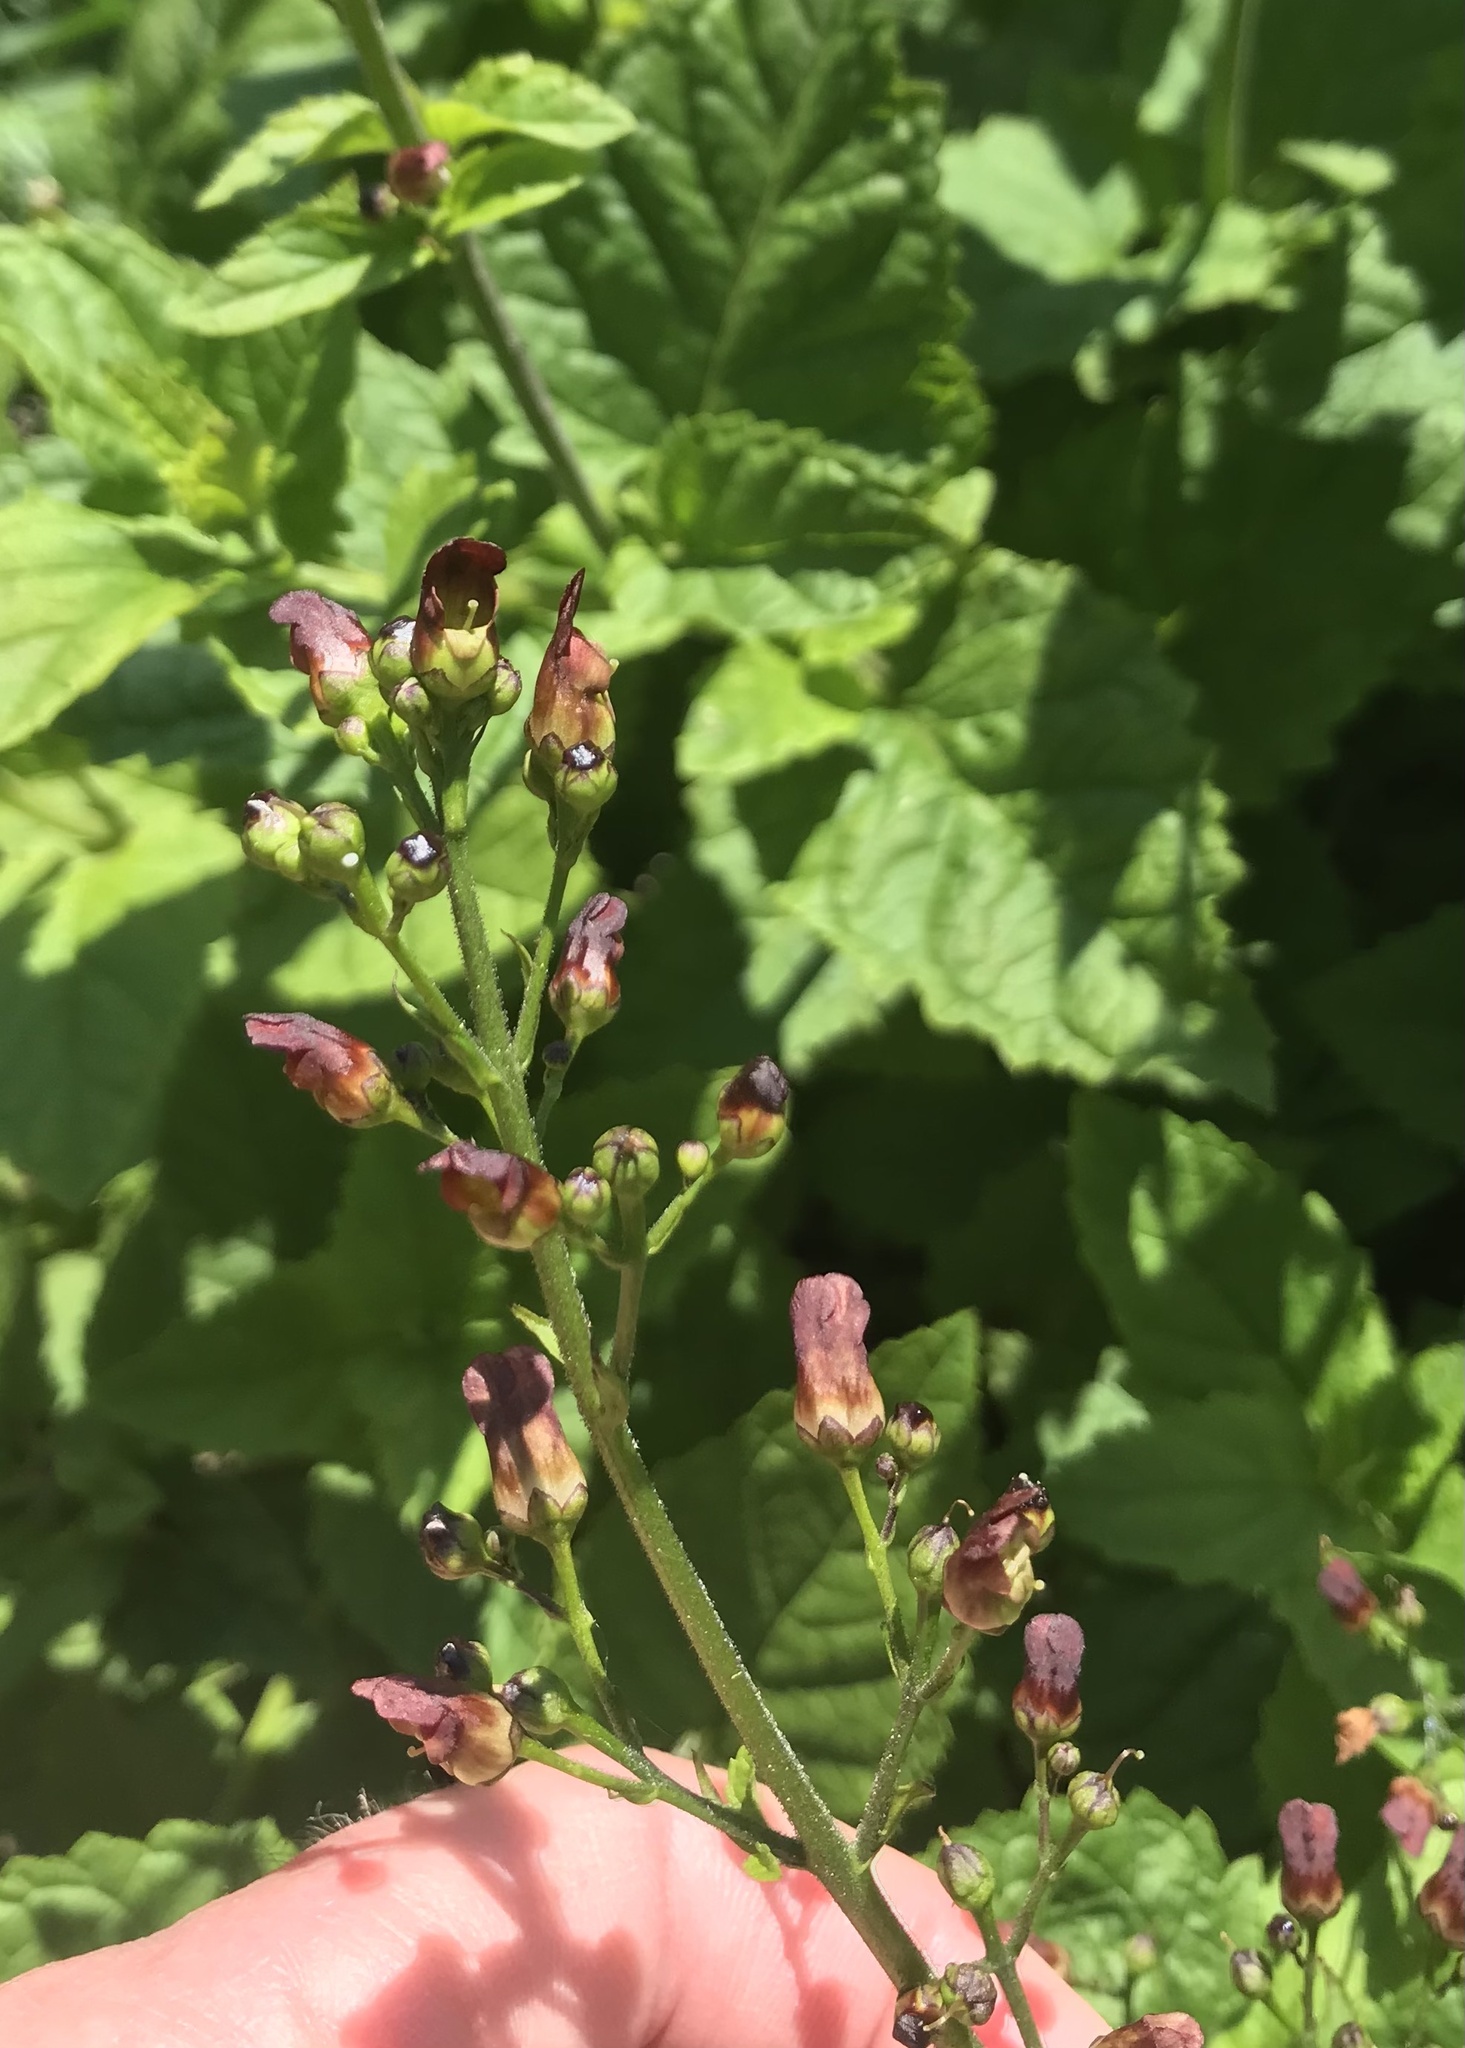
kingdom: Plantae
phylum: Tracheophyta
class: Magnoliopsida
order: Lamiales
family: Scrophulariaceae
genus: Scrophularia
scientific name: Scrophularia californica
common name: California figwort
